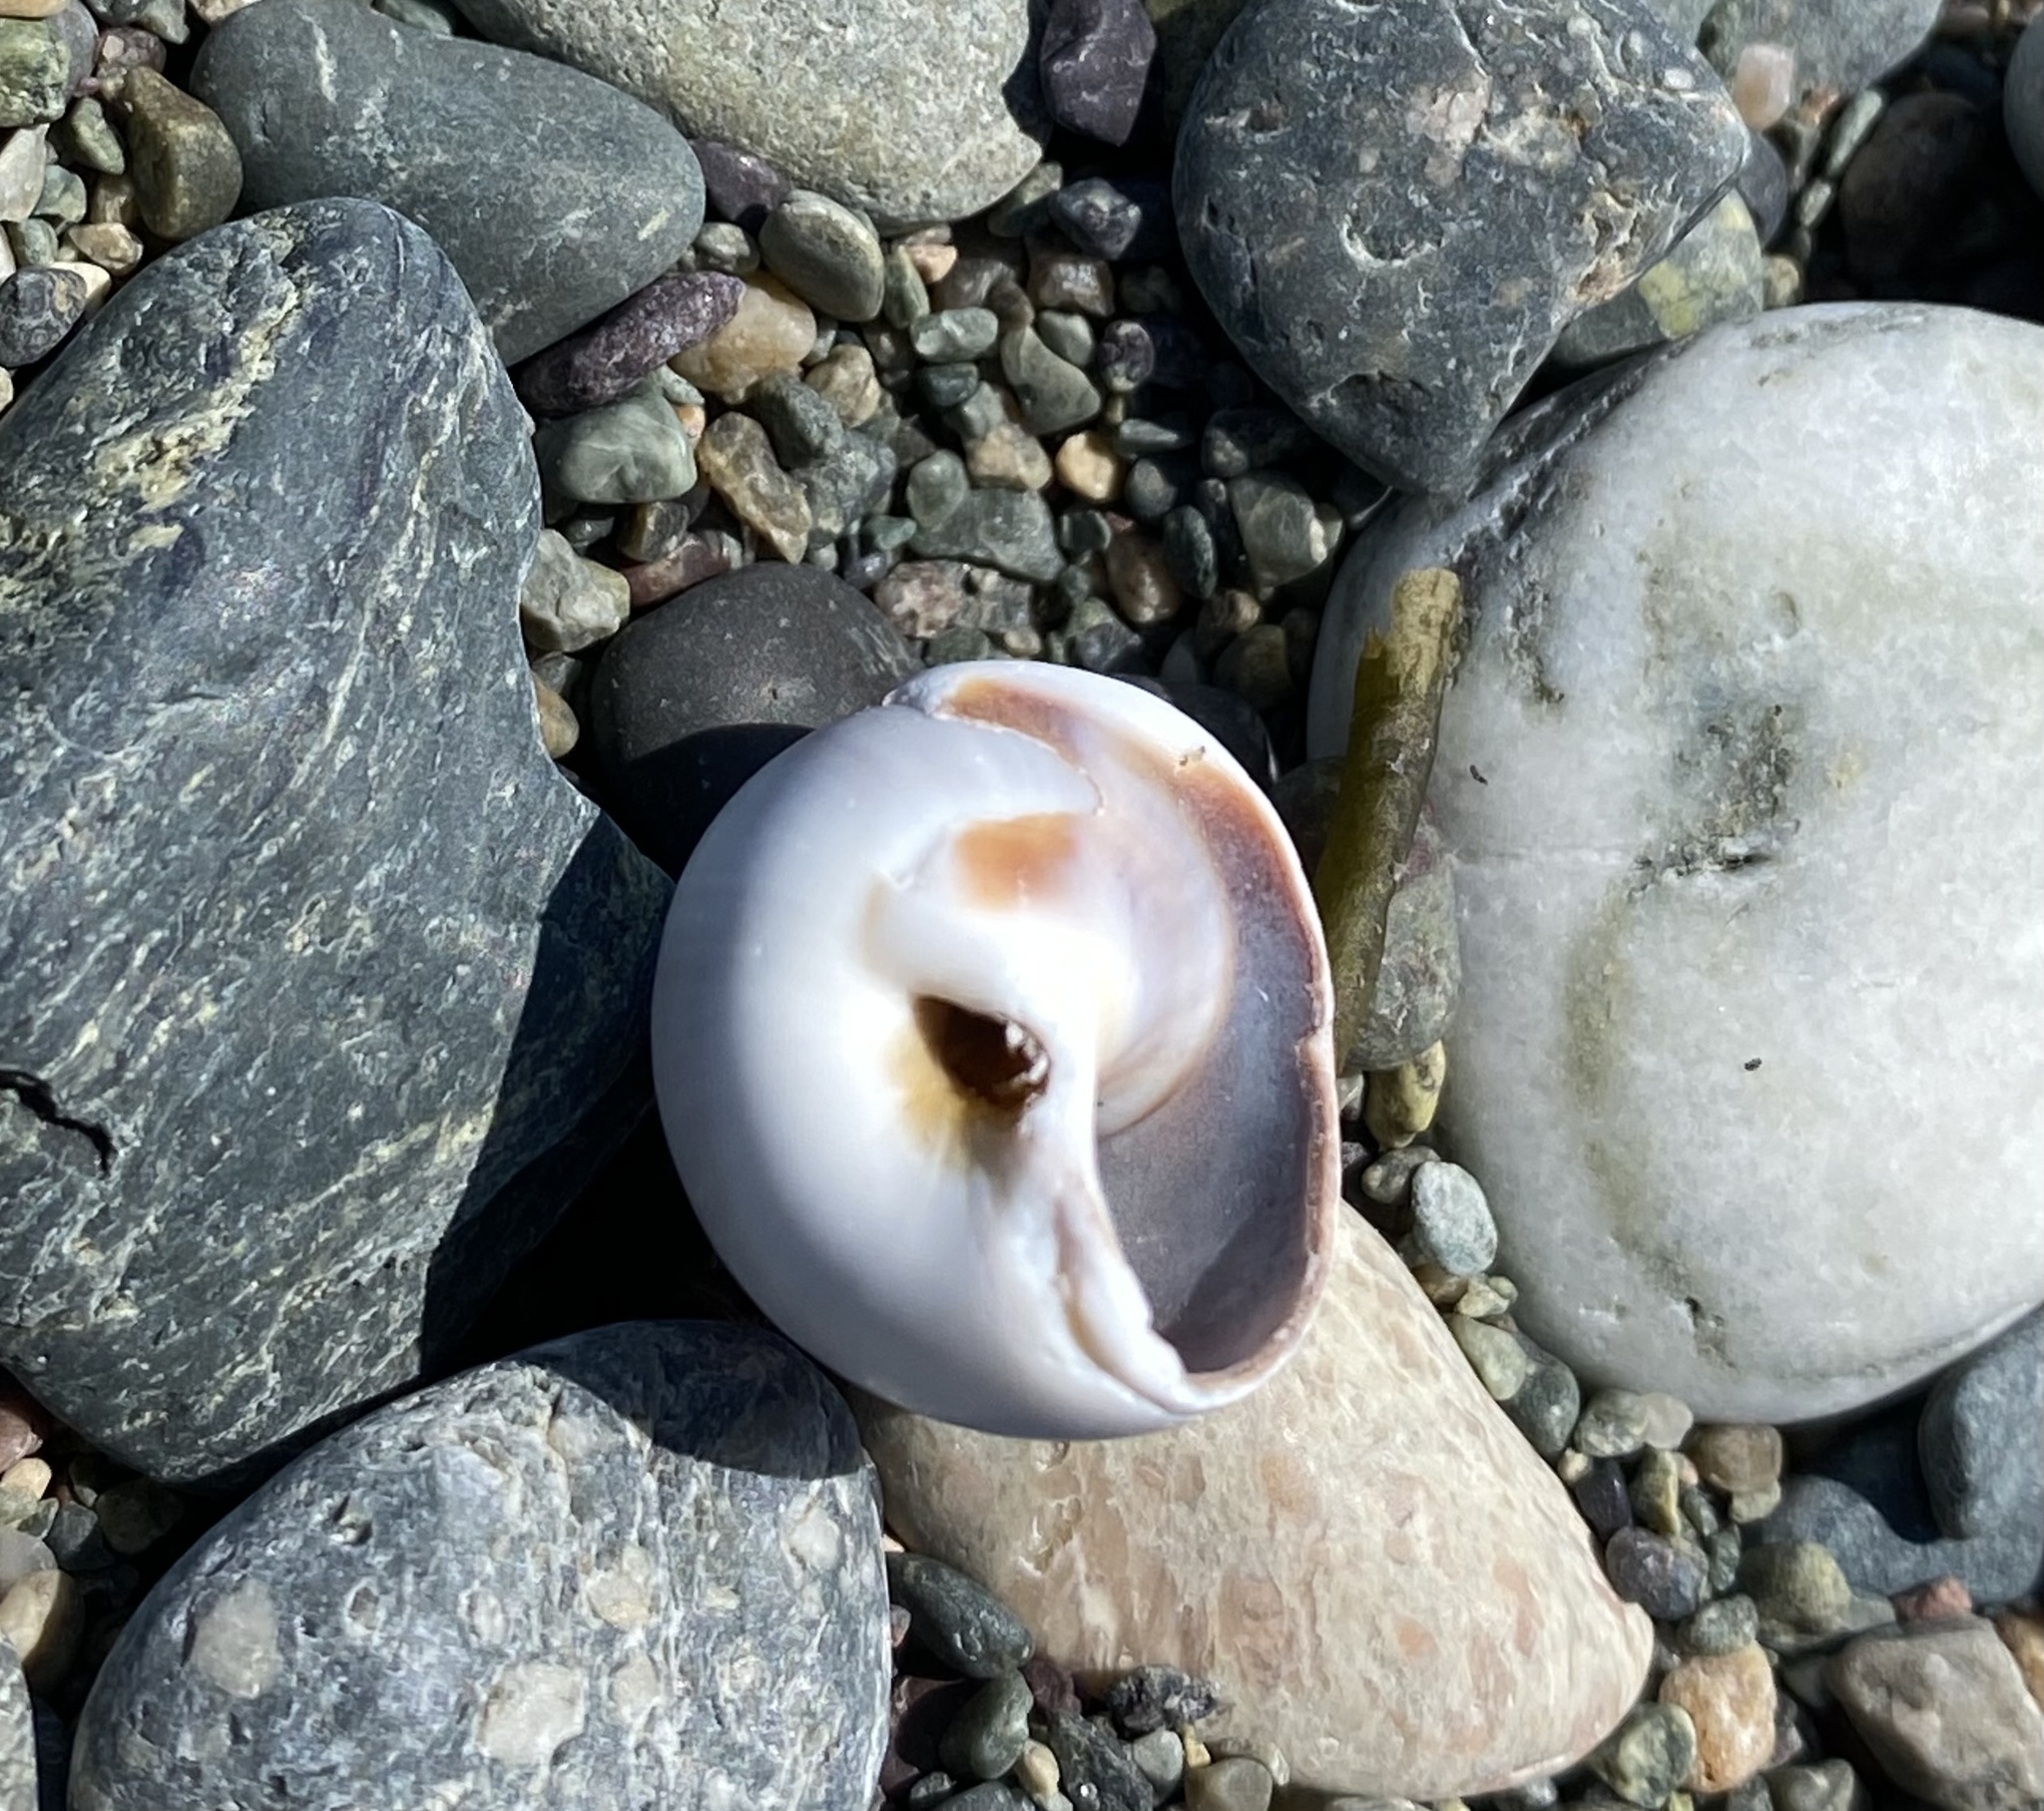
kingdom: Animalia
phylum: Mollusca
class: Gastropoda
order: Littorinimorpha
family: Naticidae
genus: Euspira
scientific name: Euspira heros
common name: Common northern moonsnail
